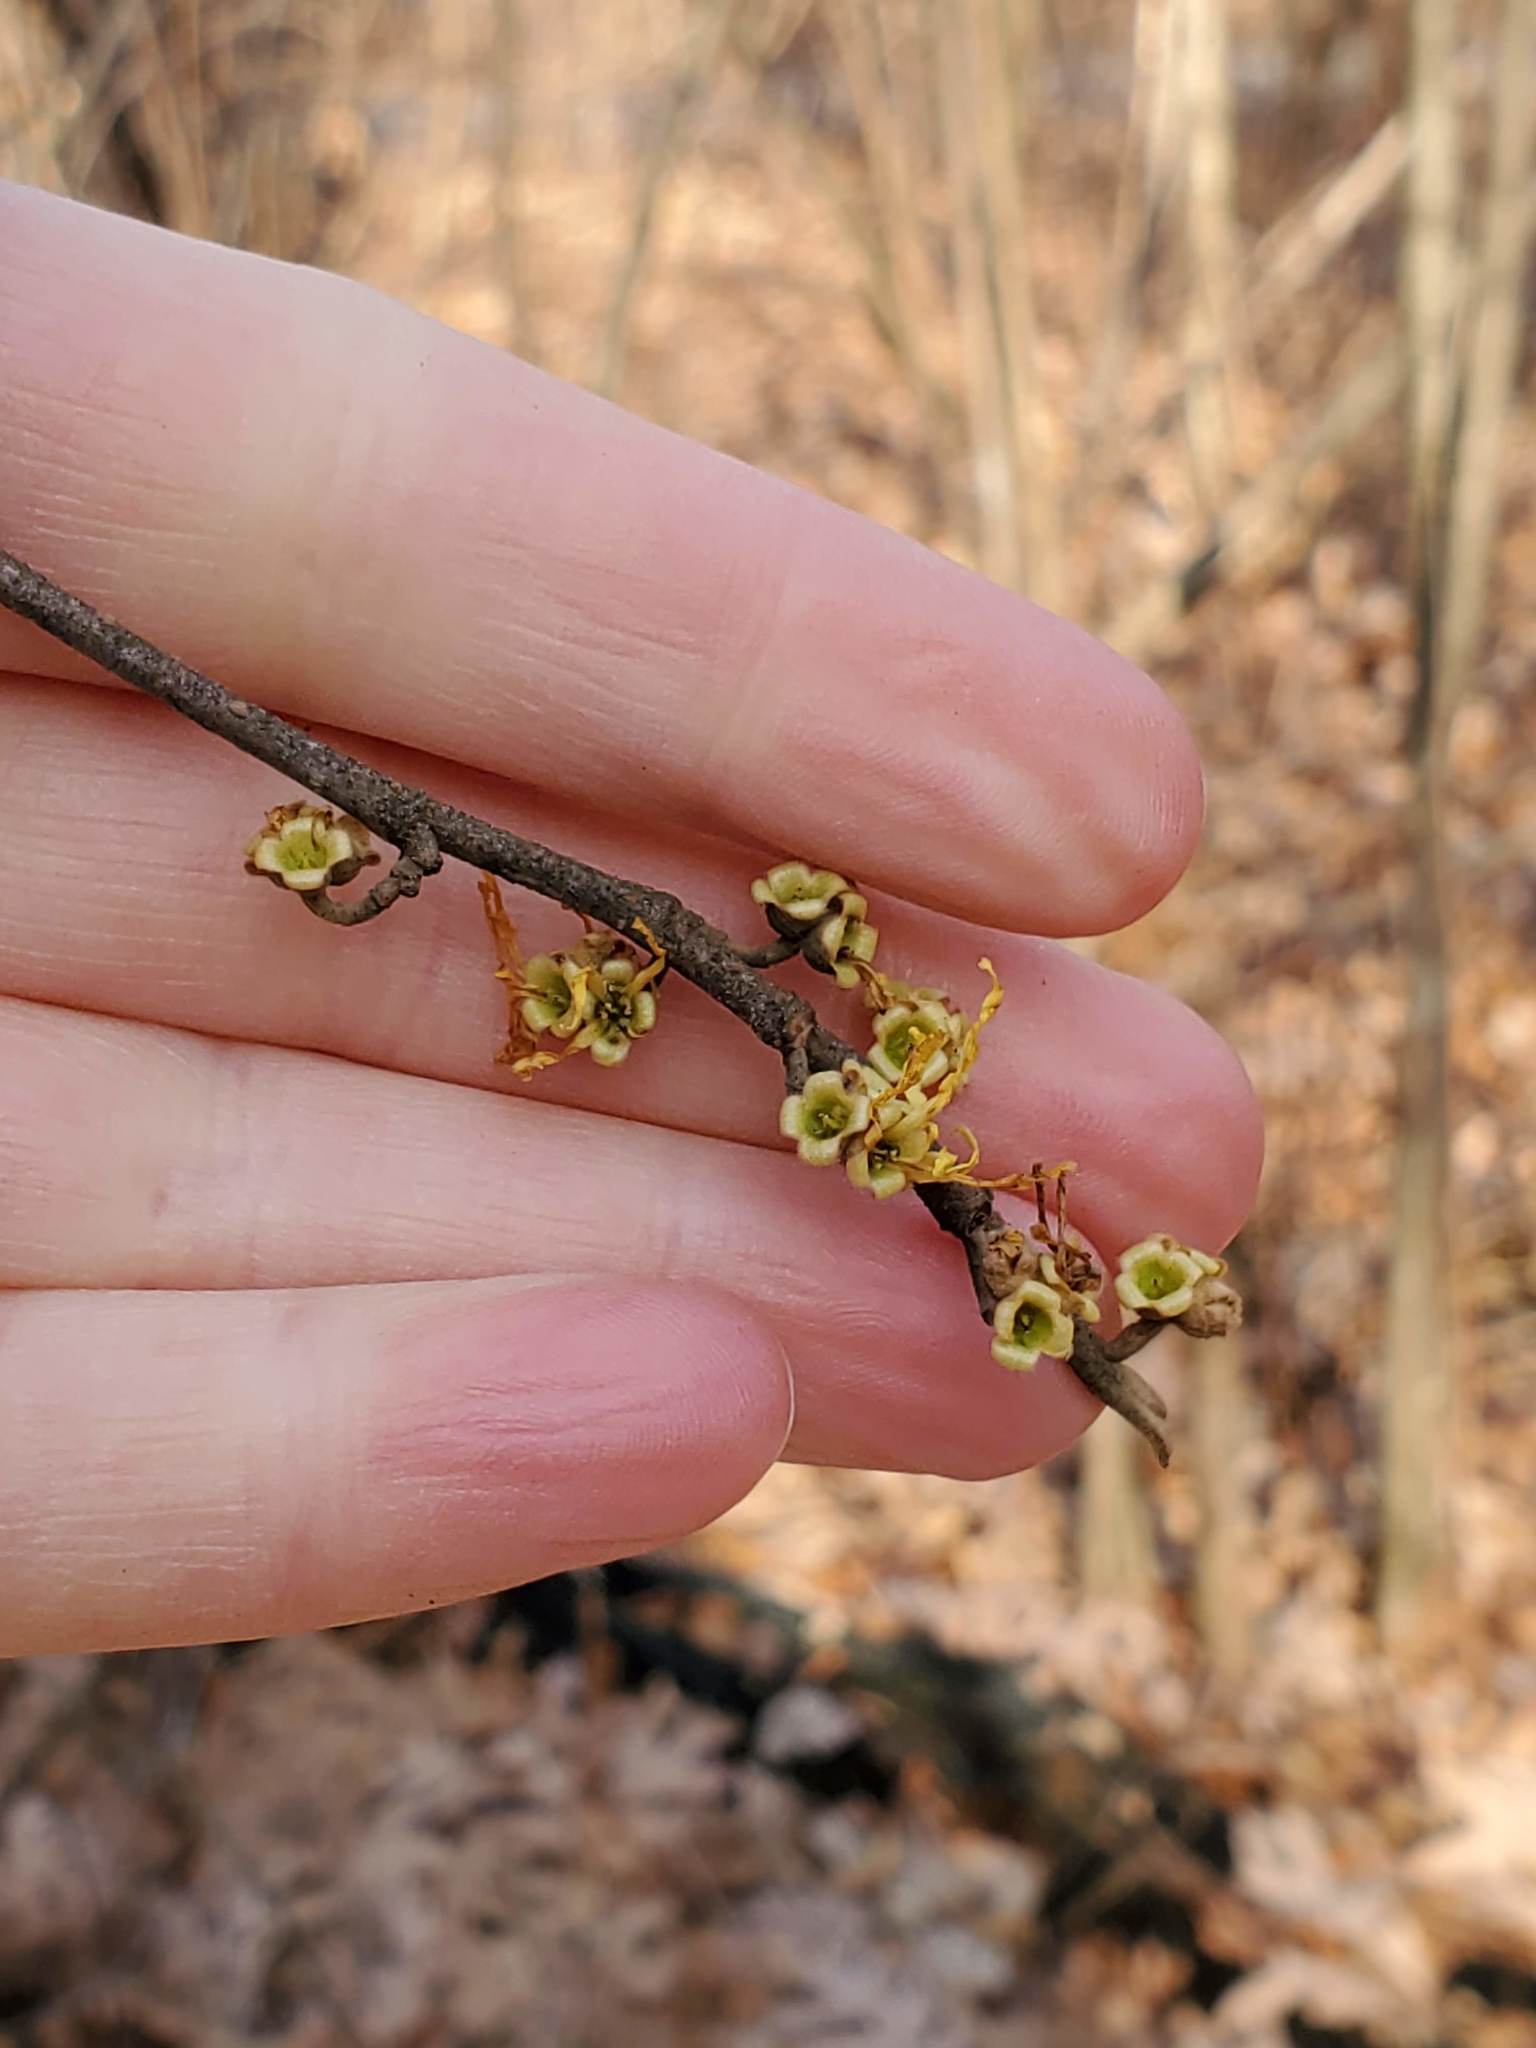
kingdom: Plantae
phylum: Tracheophyta
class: Magnoliopsida
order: Saxifragales
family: Hamamelidaceae
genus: Hamamelis
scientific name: Hamamelis virginiana
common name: Witch-hazel
